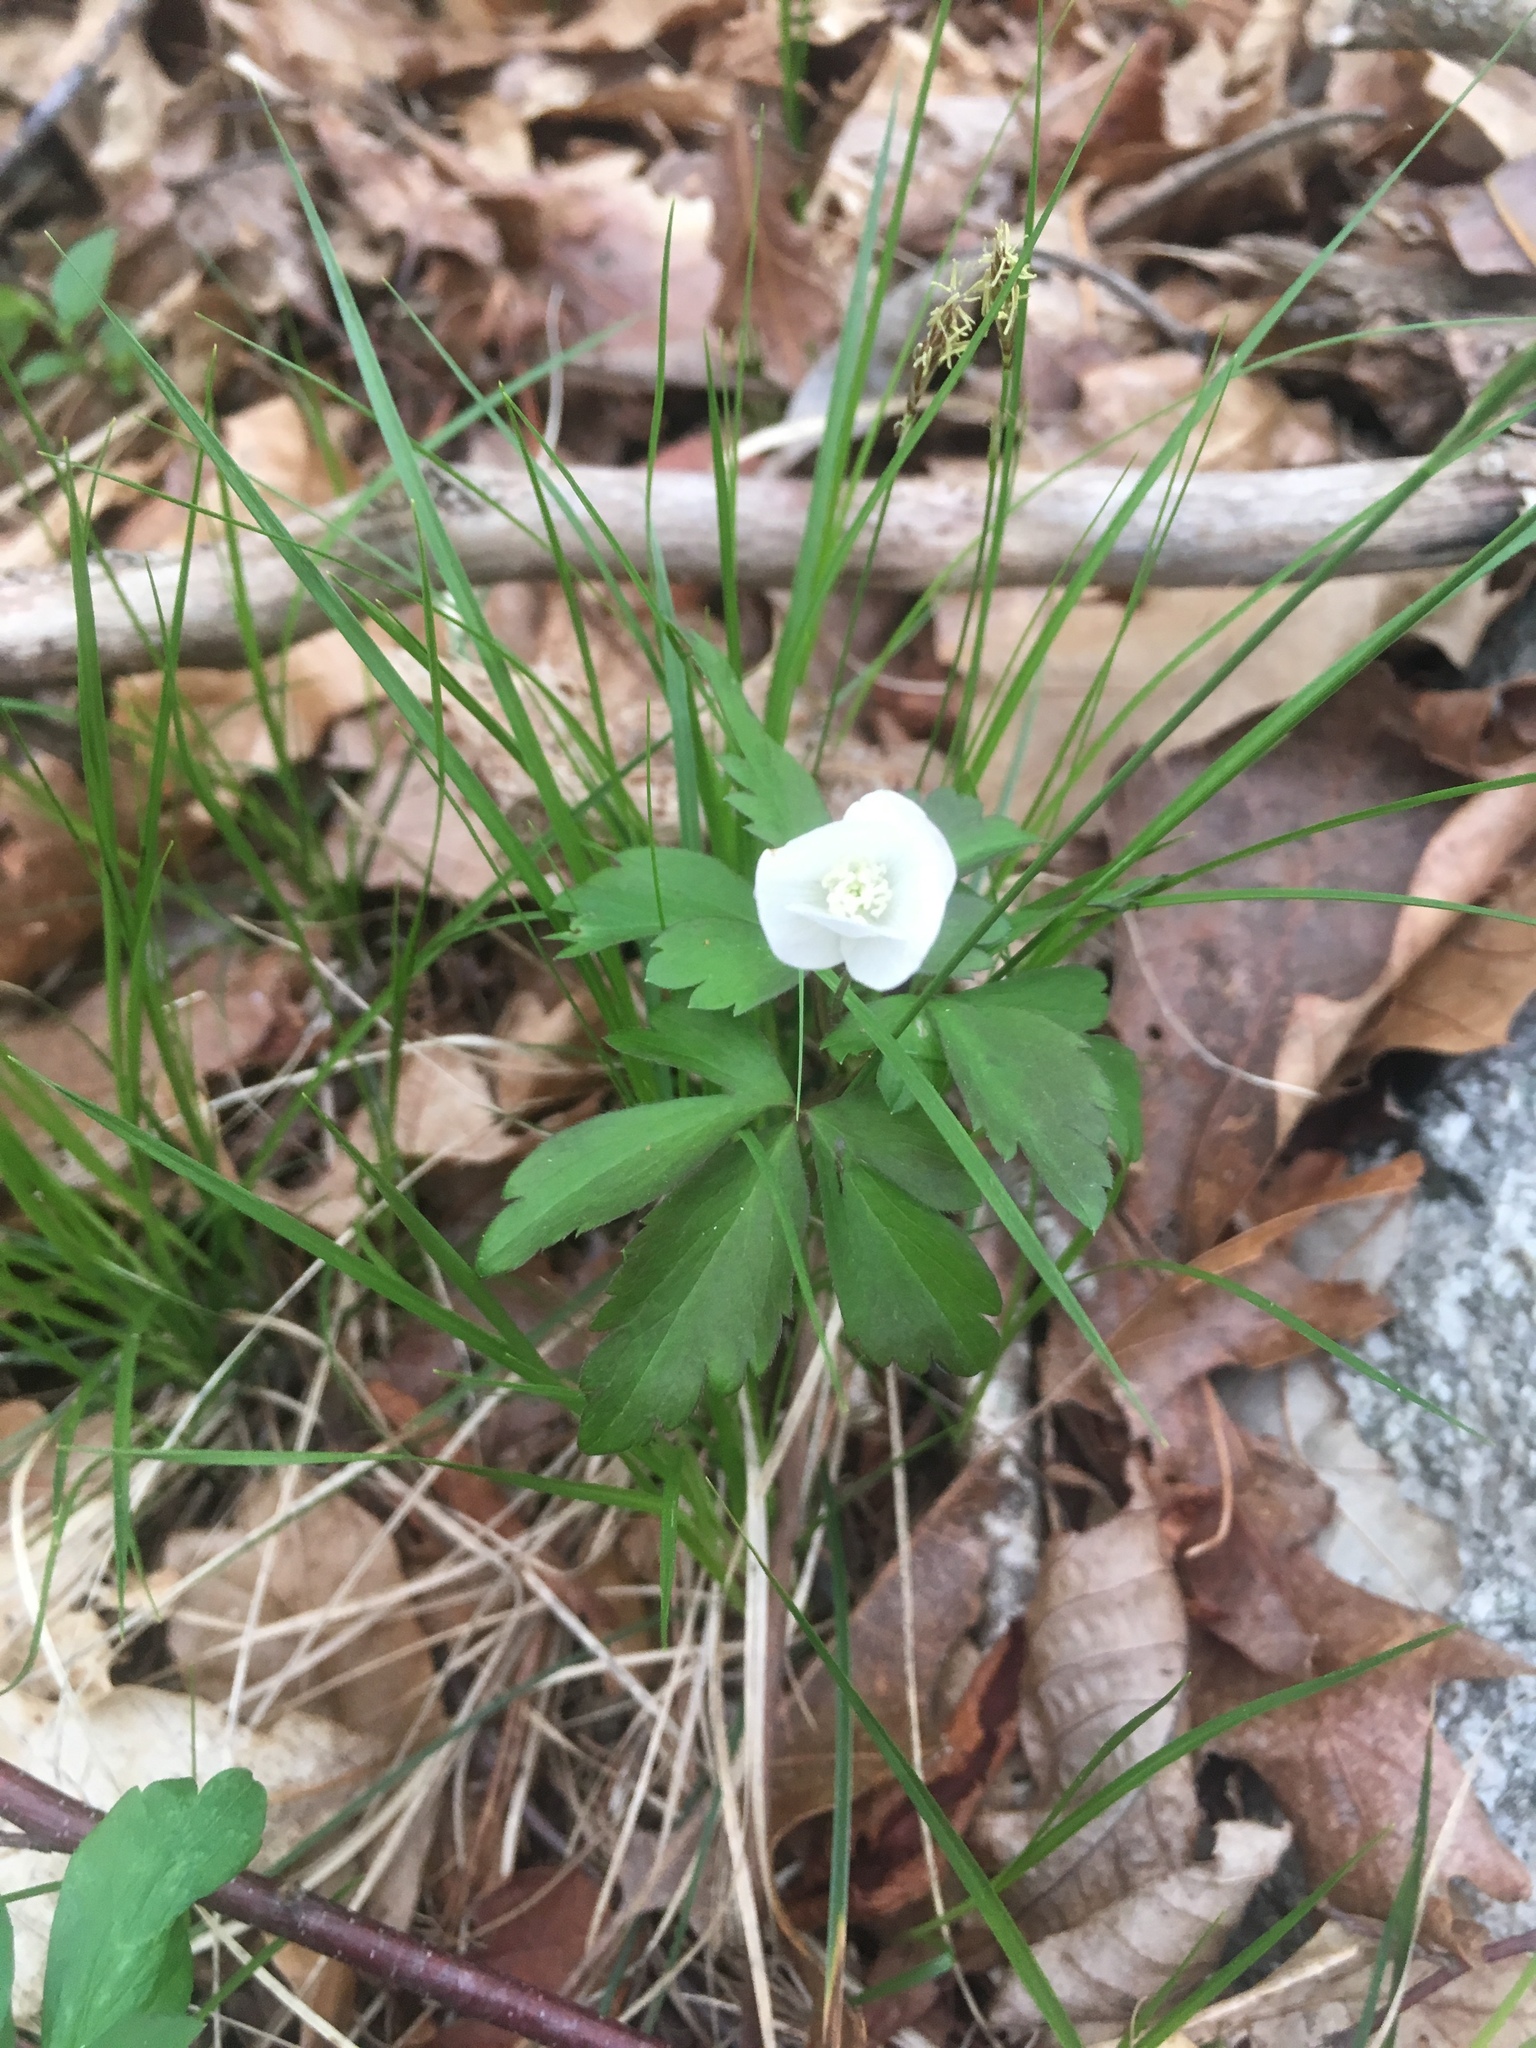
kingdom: Plantae
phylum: Tracheophyta
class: Magnoliopsida
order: Ranunculales
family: Ranunculaceae
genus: Anemone
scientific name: Anemone quinquefolia
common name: Wood anemone
